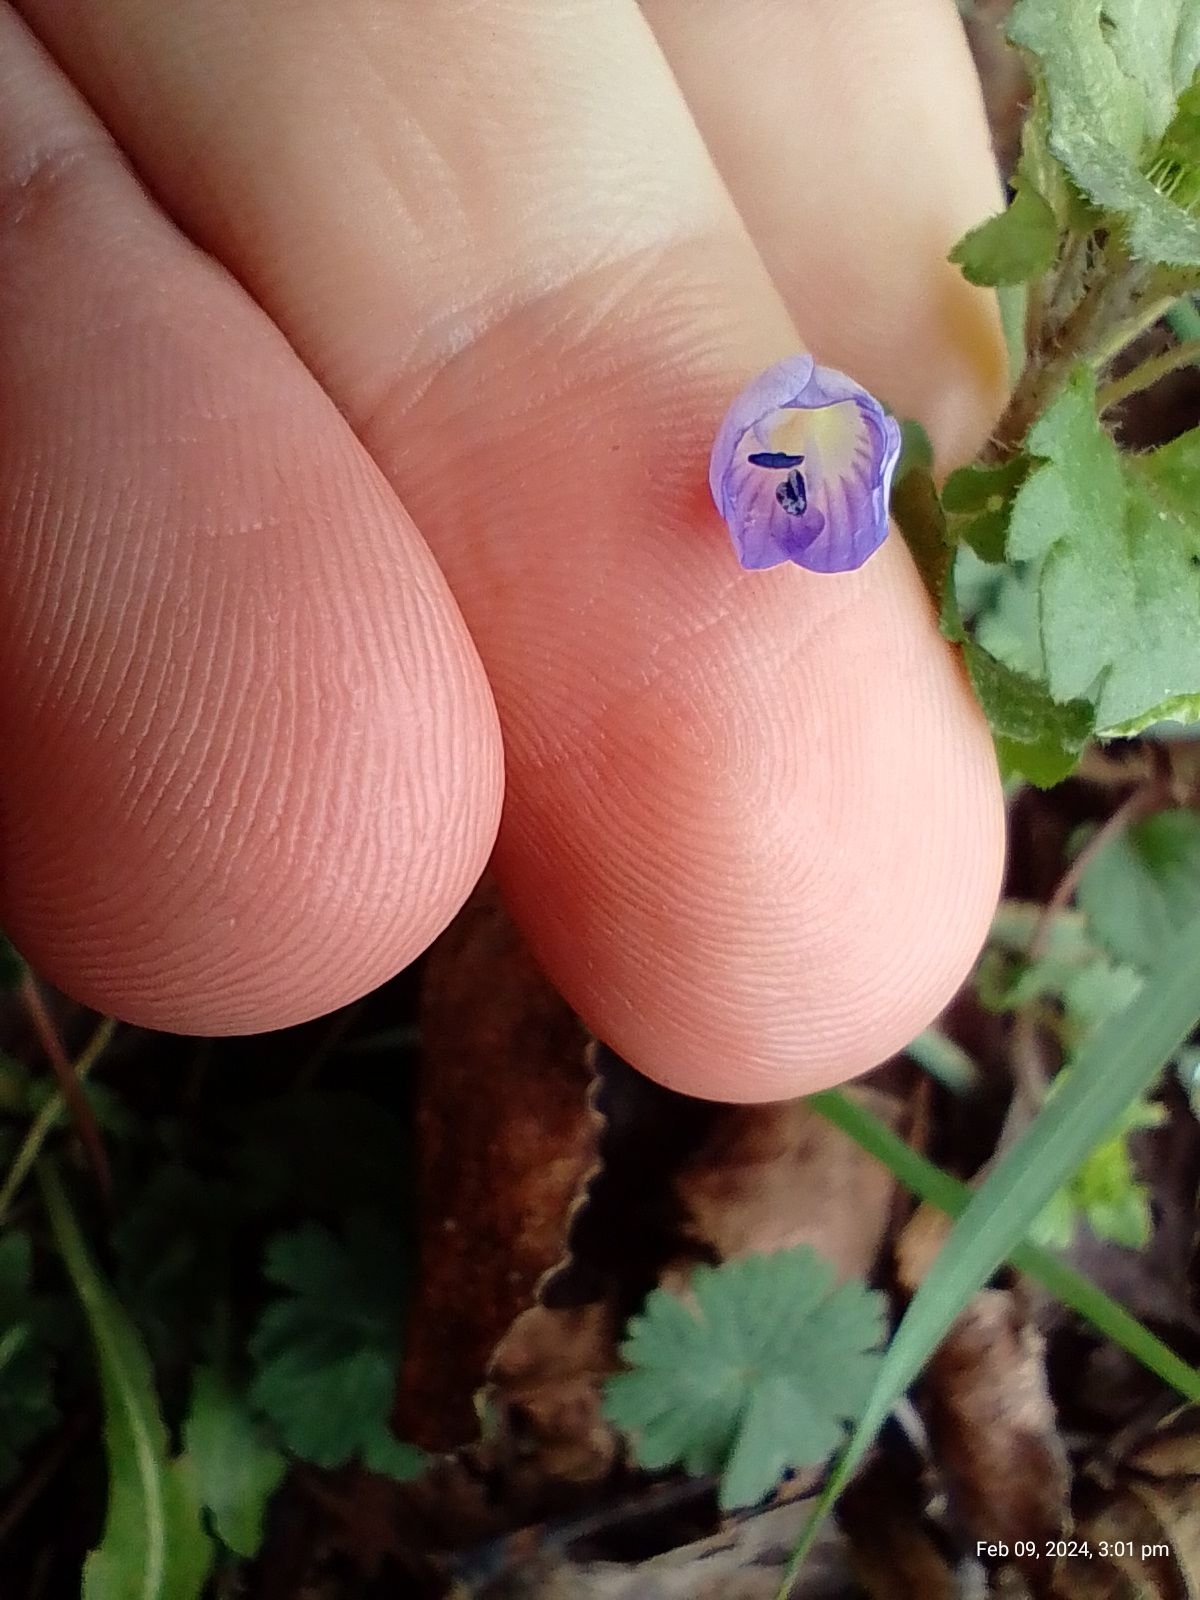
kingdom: Plantae
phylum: Tracheophyta
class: Magnoliopsida
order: Lamiales
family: Plantaginaceae
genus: Veronica
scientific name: Veronica persica
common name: Common field-speedwell
